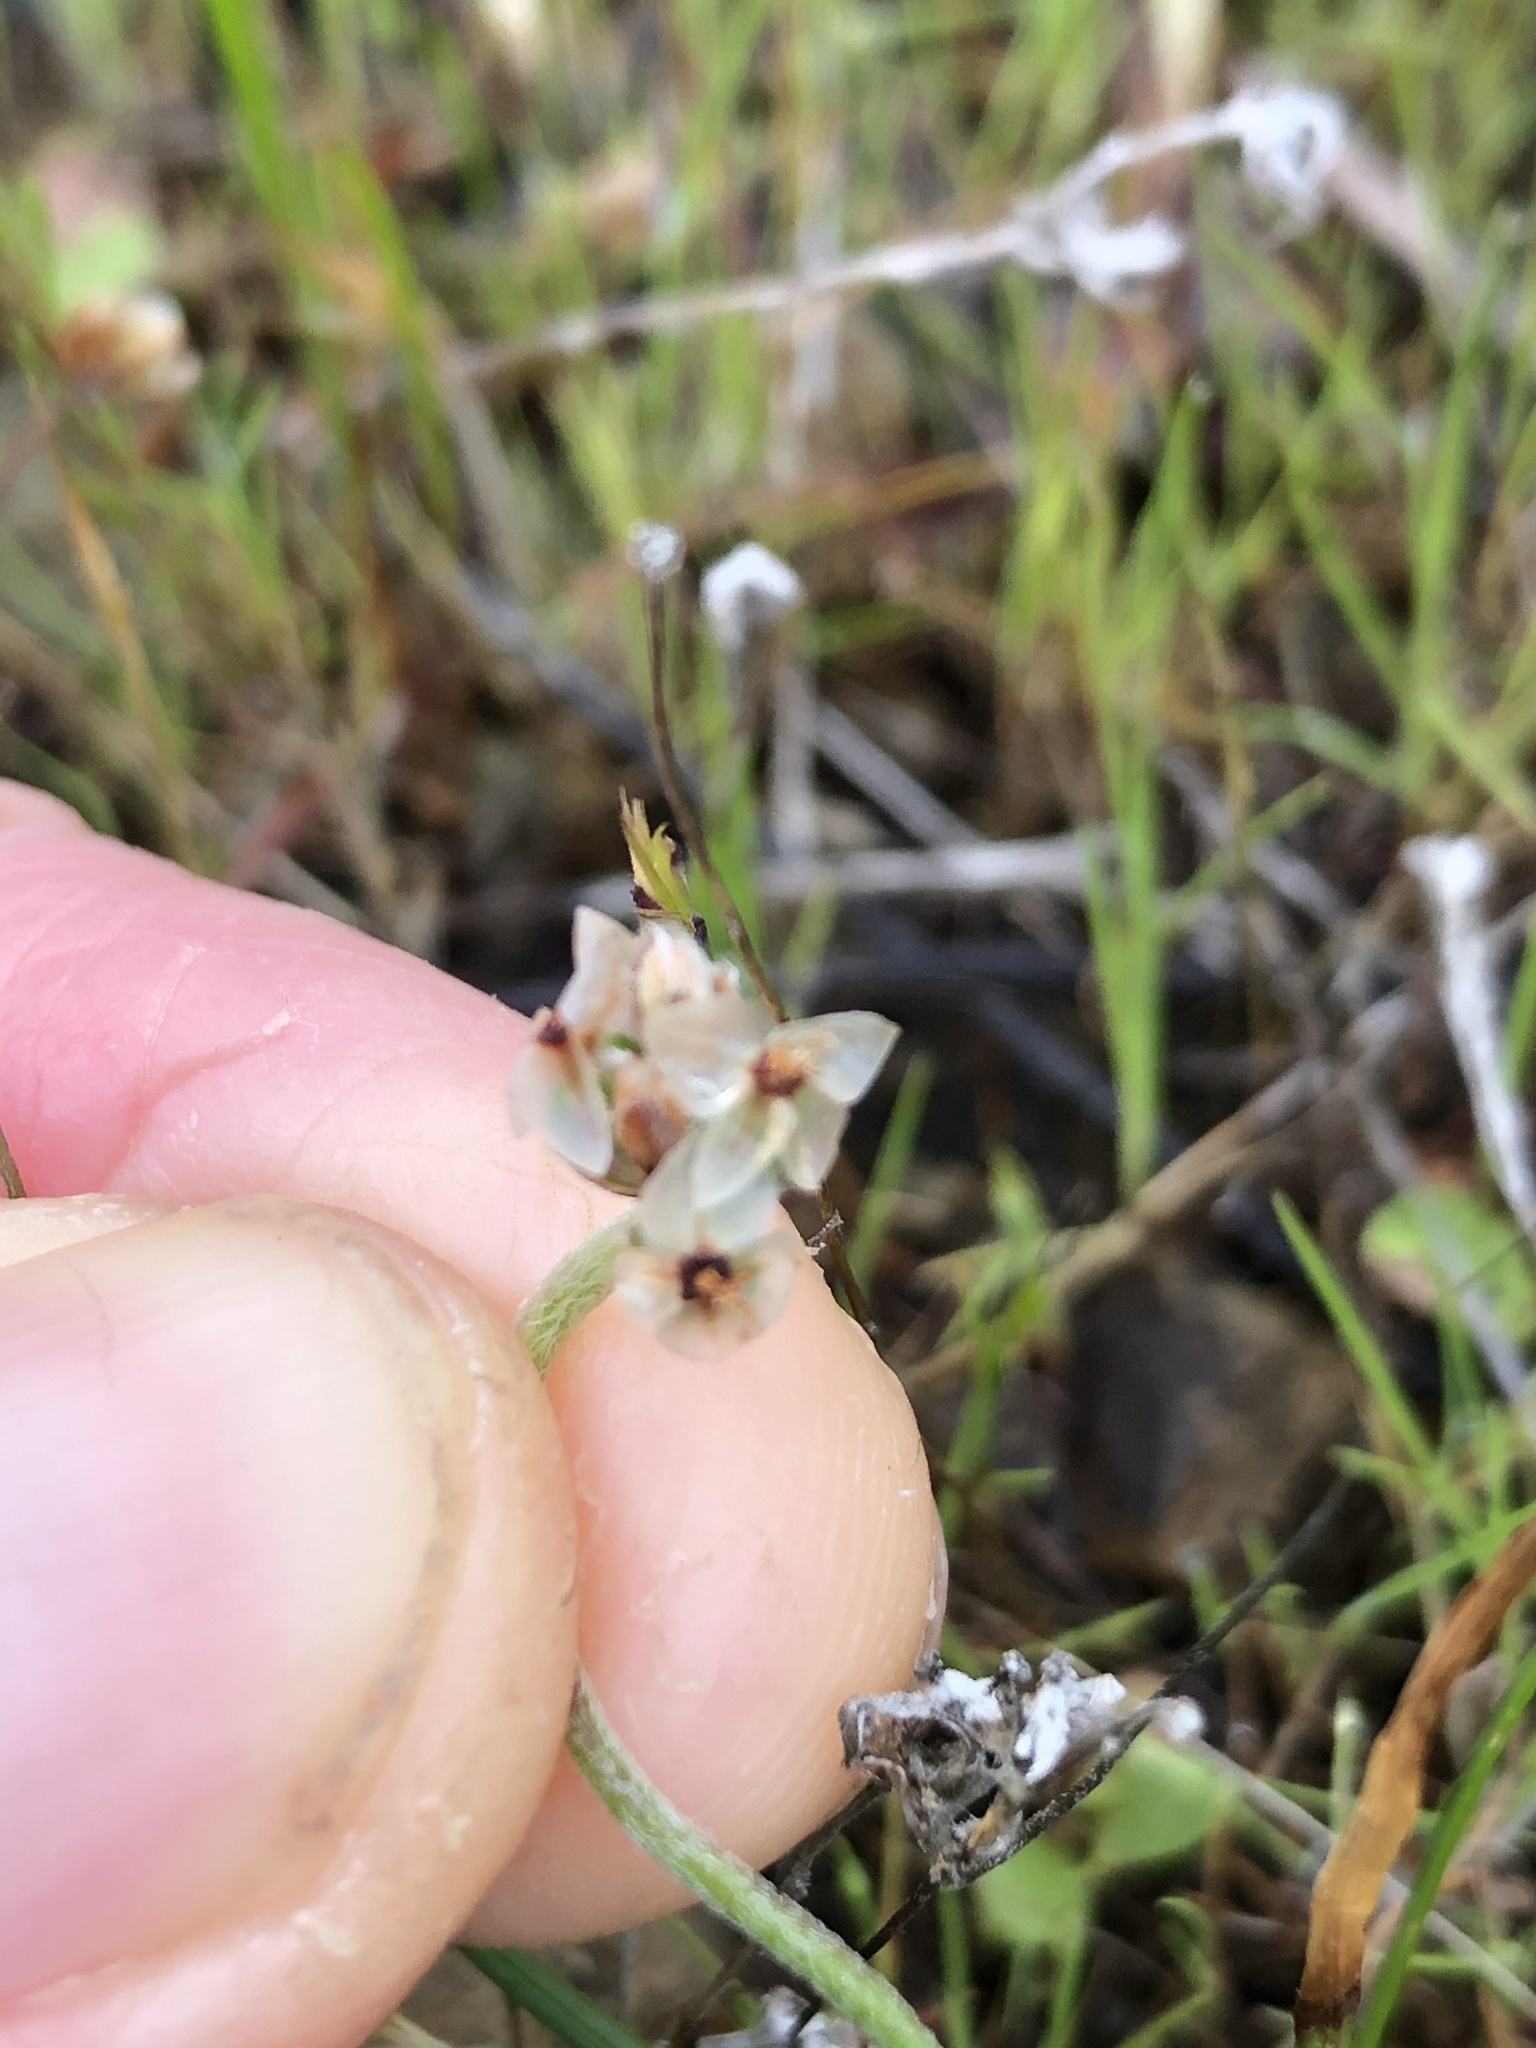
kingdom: Plantae
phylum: Tracheophyta
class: Magnoliopsida
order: Lamiales
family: Plantaginaceae
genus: Plantago
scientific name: Plantago erecta
